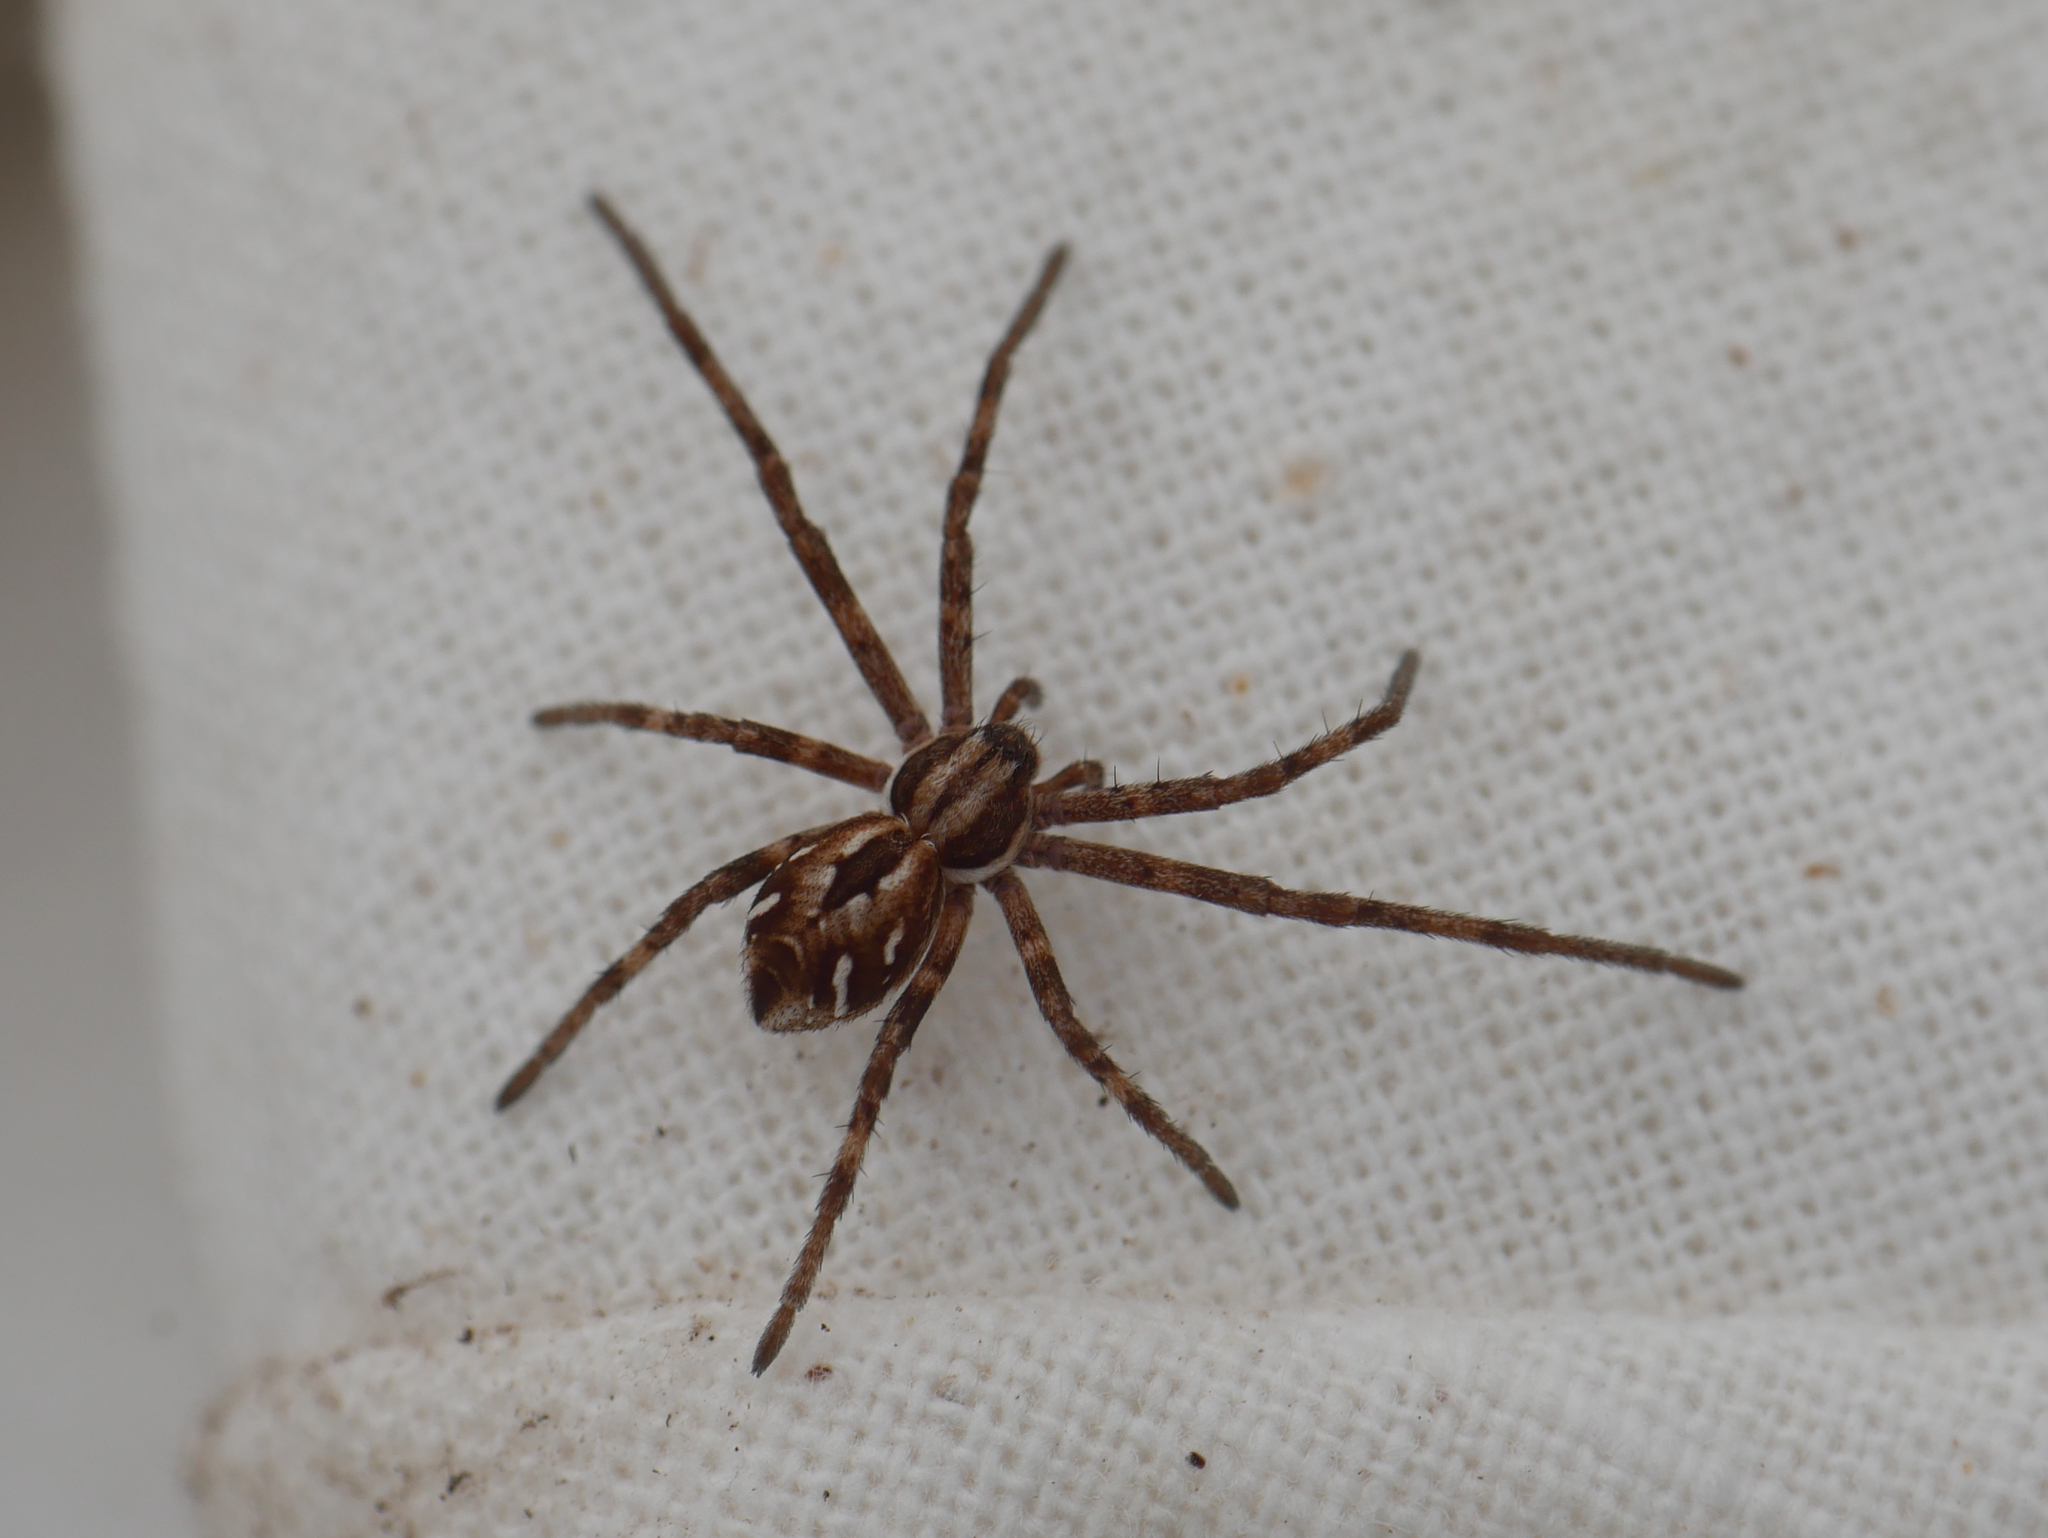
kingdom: Animalia
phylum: Arthropoda
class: Arachnida
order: Araneae
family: Philodromidae
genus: Rhysodromus
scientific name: Rhysodromus histrio
